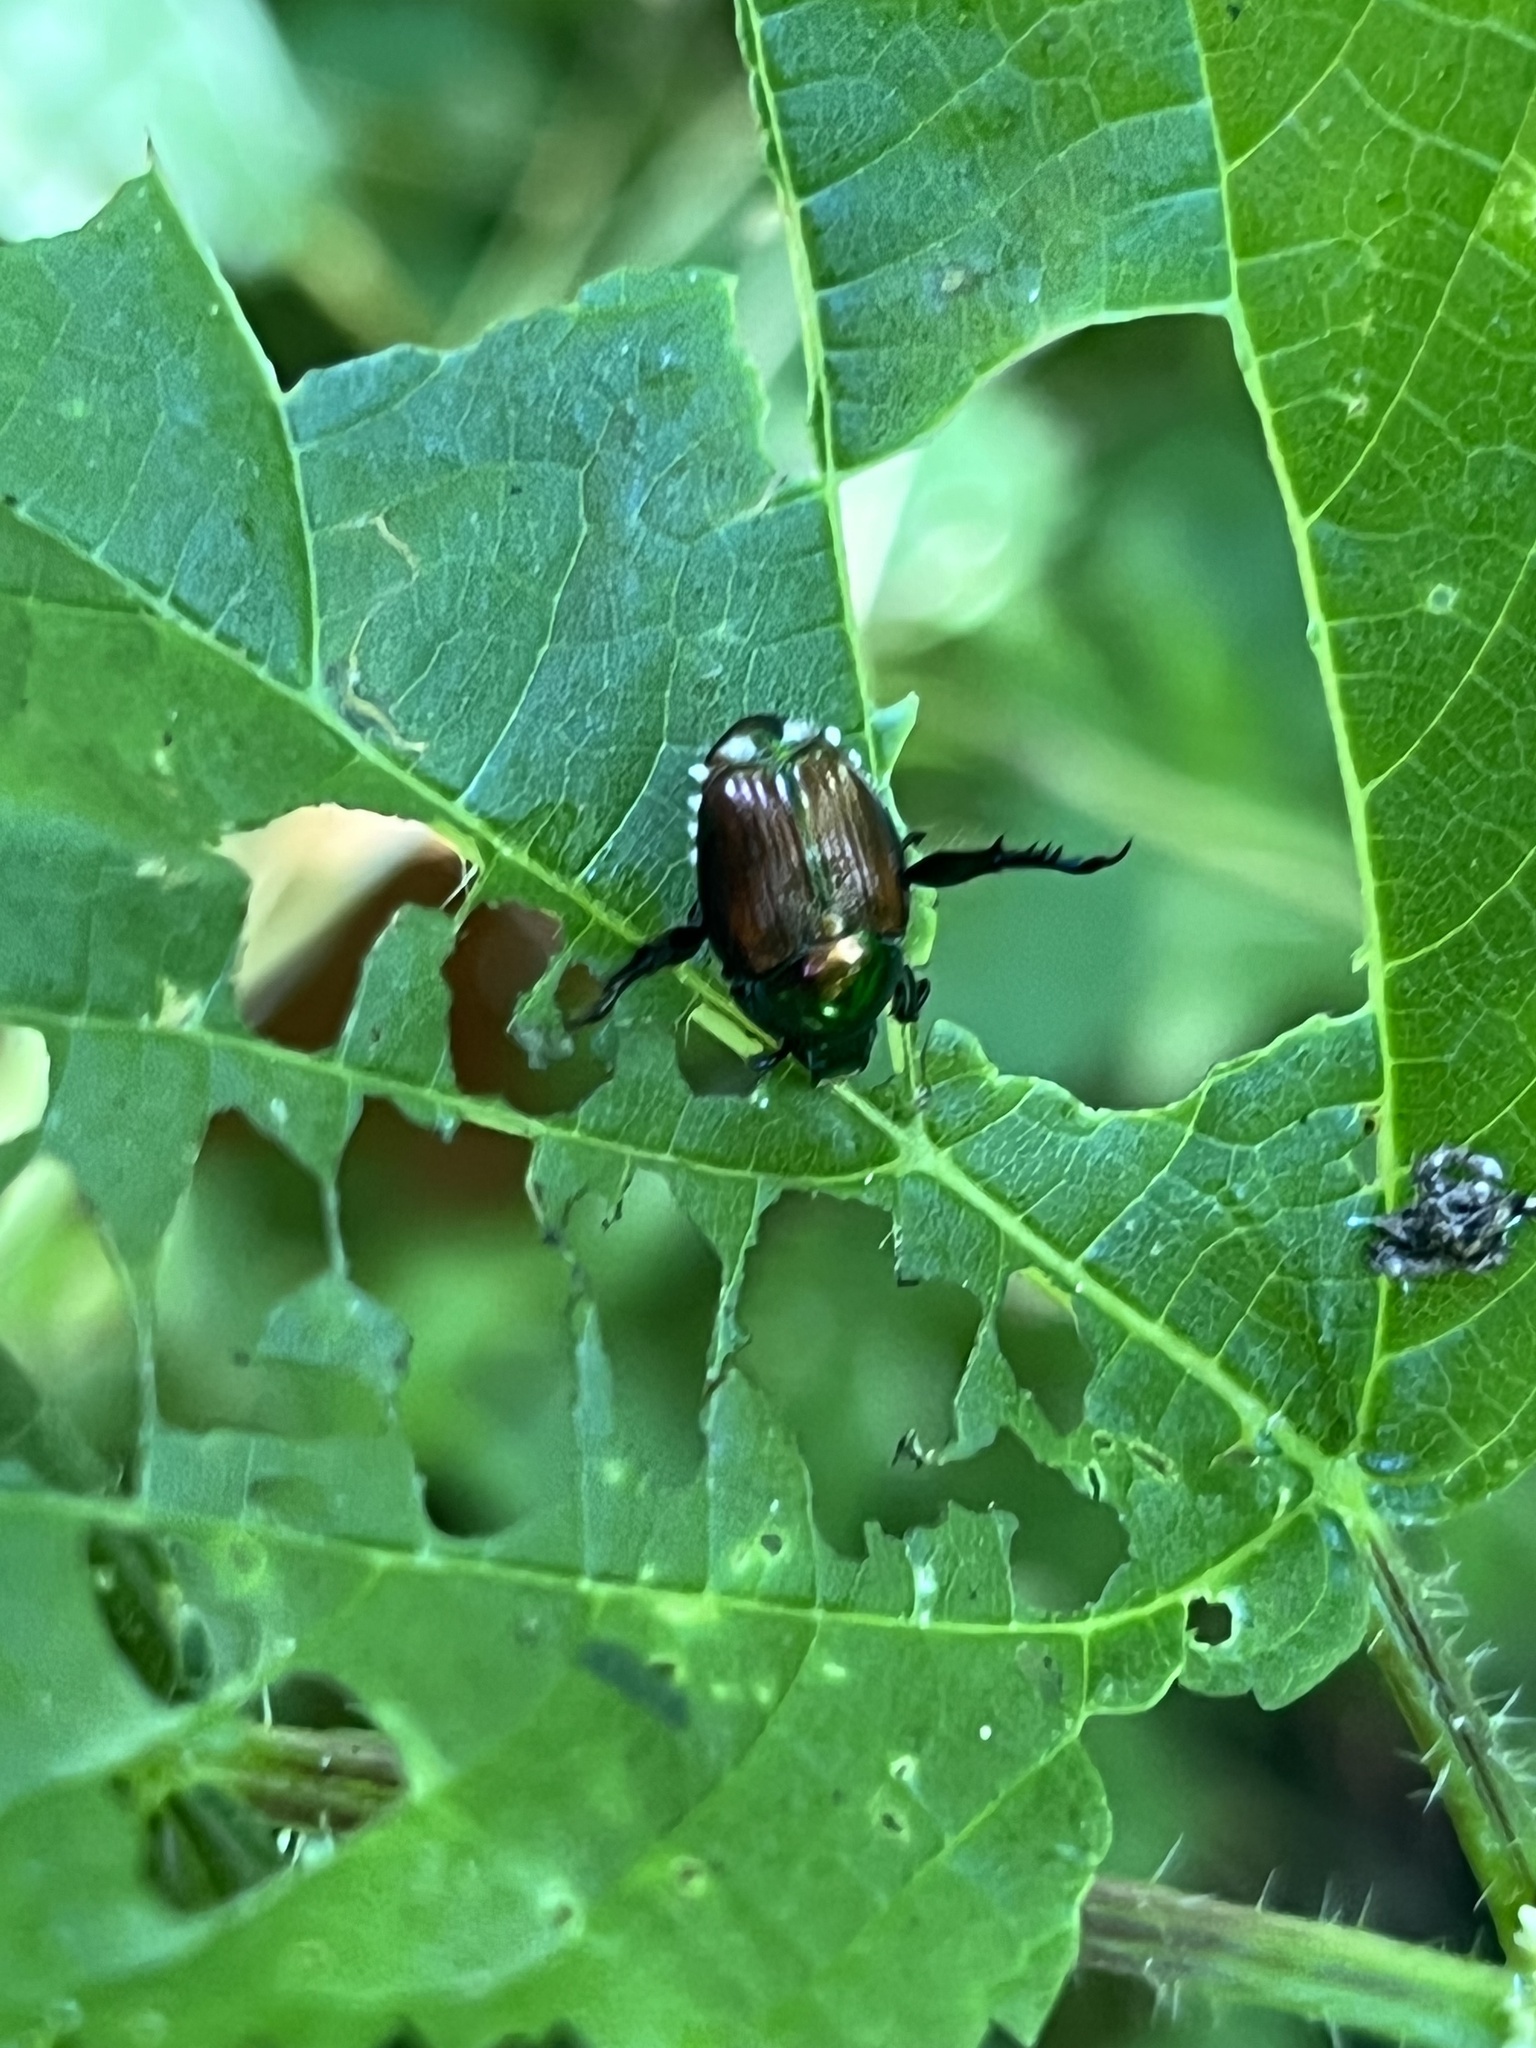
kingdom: Animalia
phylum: Arthropoda
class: Insecta
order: Coleoptera
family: Scarabaeidae
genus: Popillia
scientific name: Popillia japonica
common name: Japanese beetle
